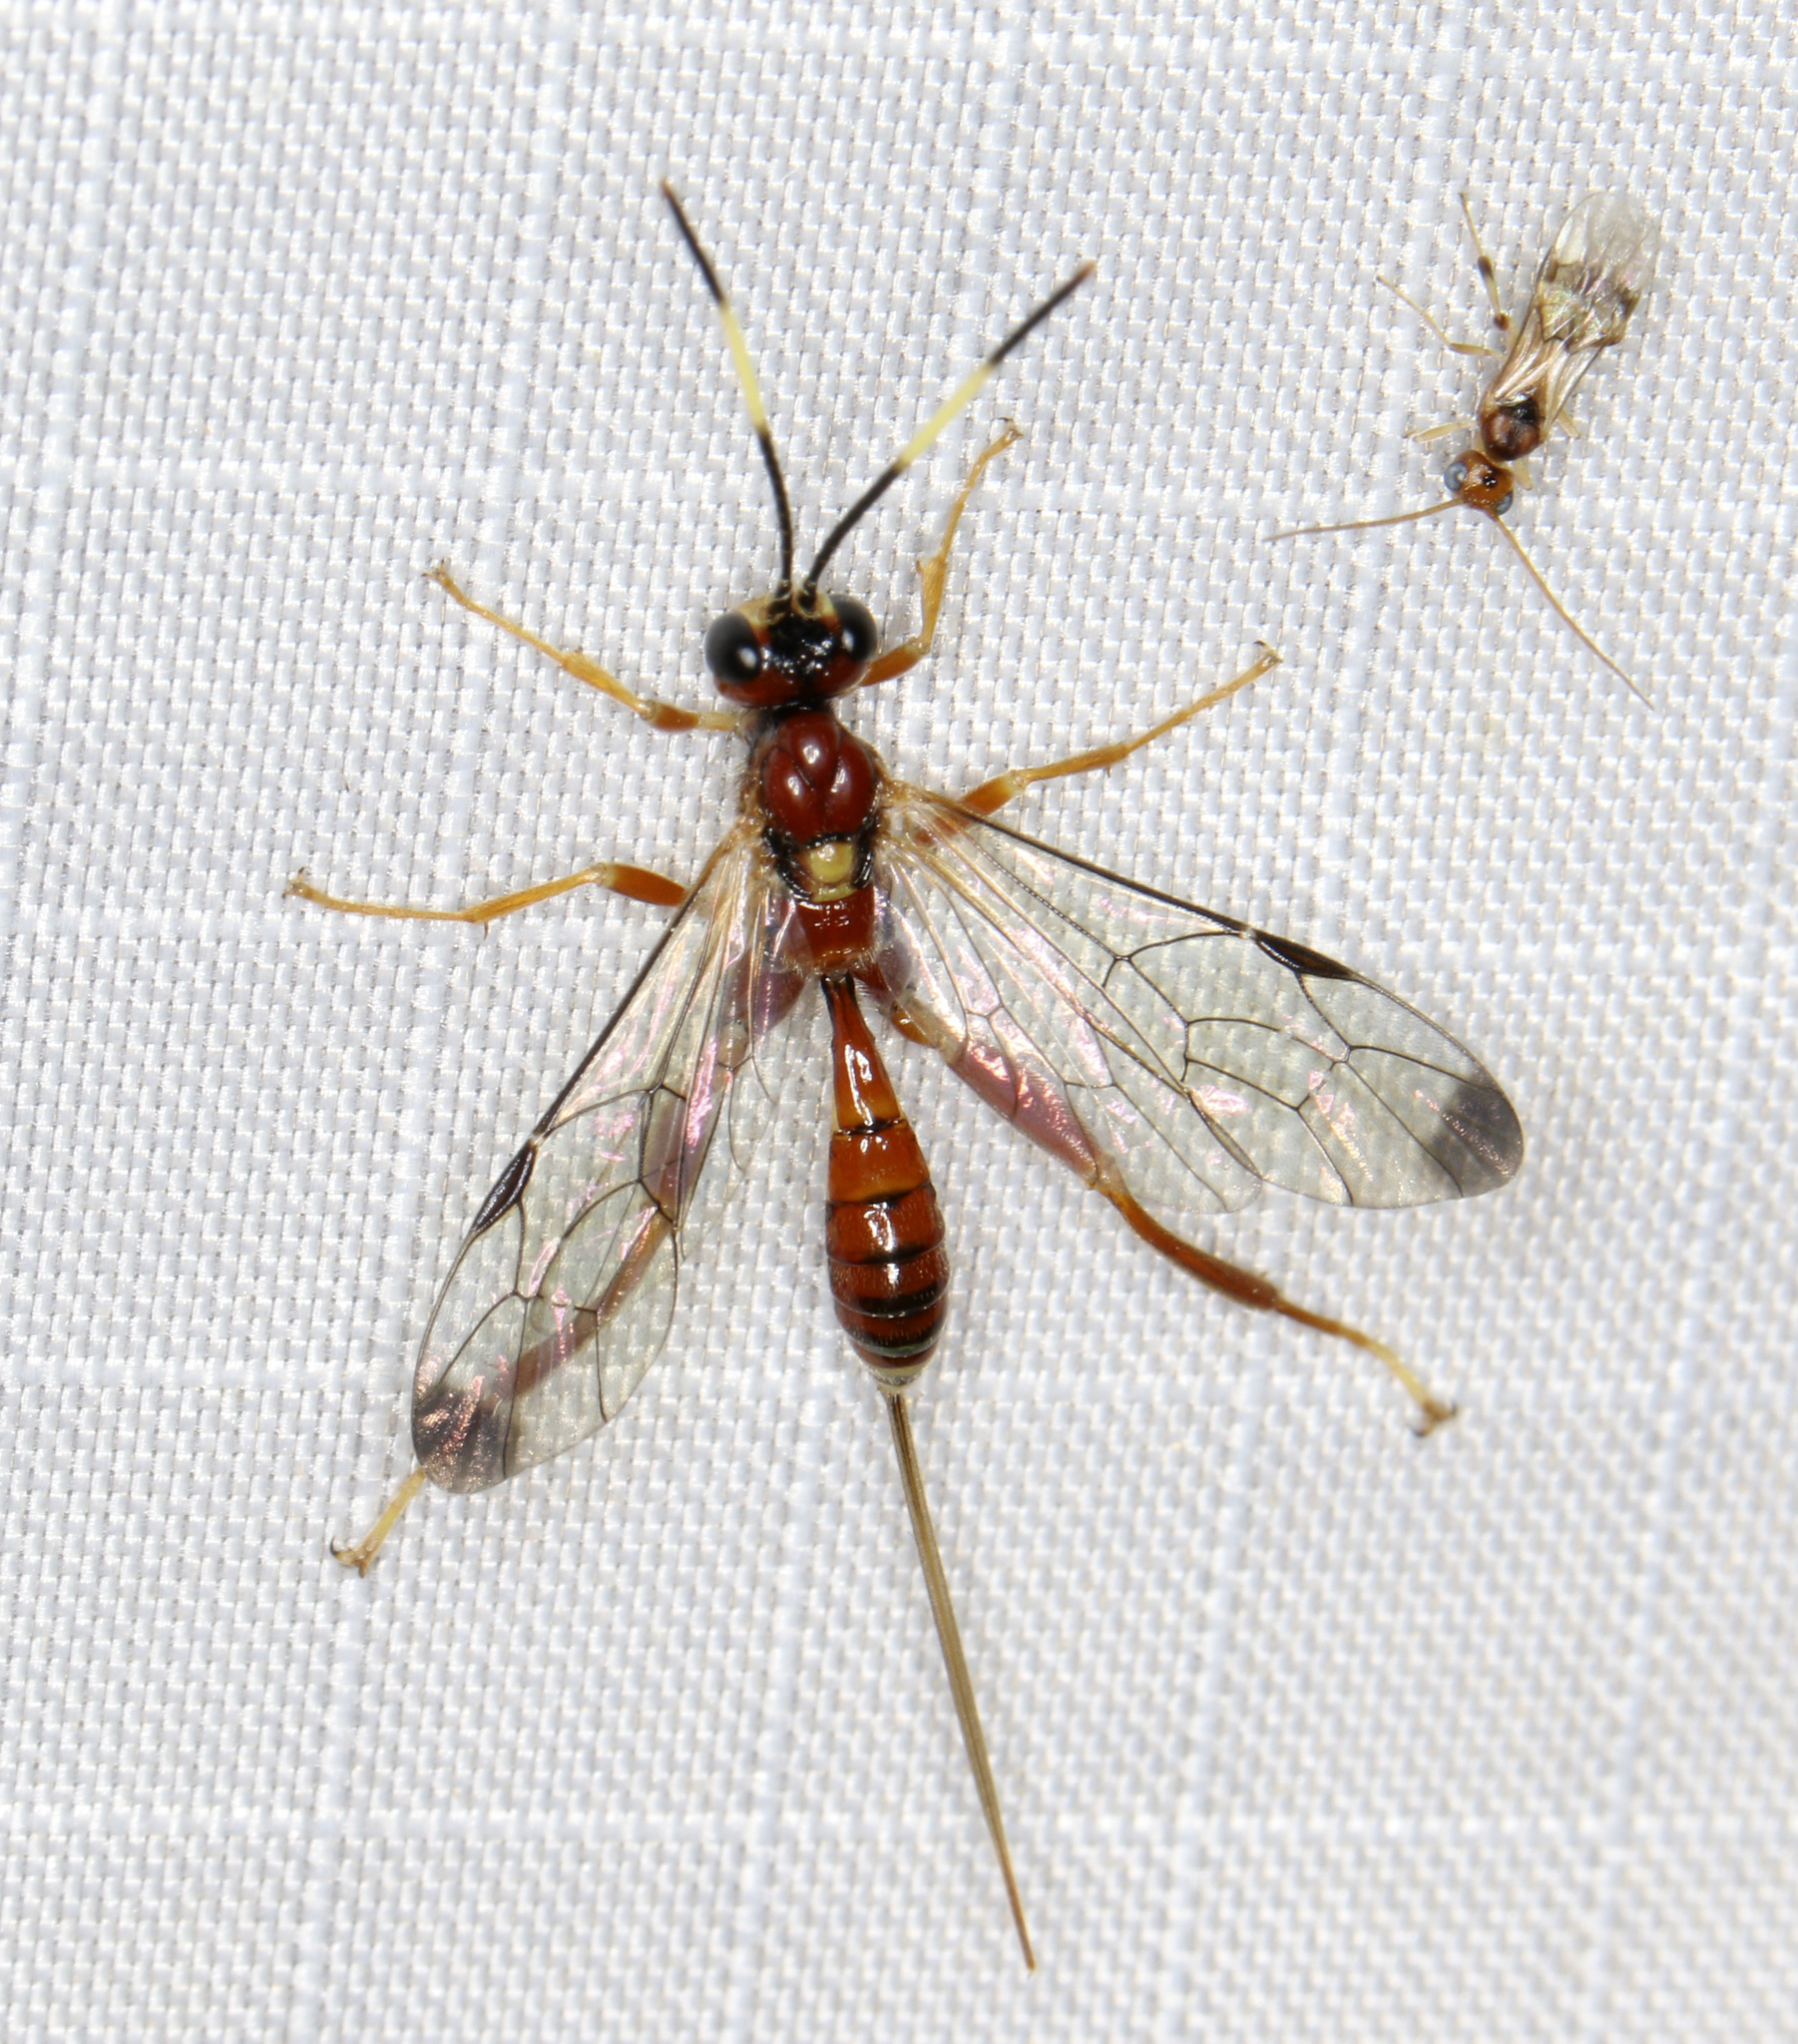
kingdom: Animalia
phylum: Arthropoda
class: Insecta
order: Hymenoptera
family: Ichneumonidae
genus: Arotes
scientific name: Arotes melleus
